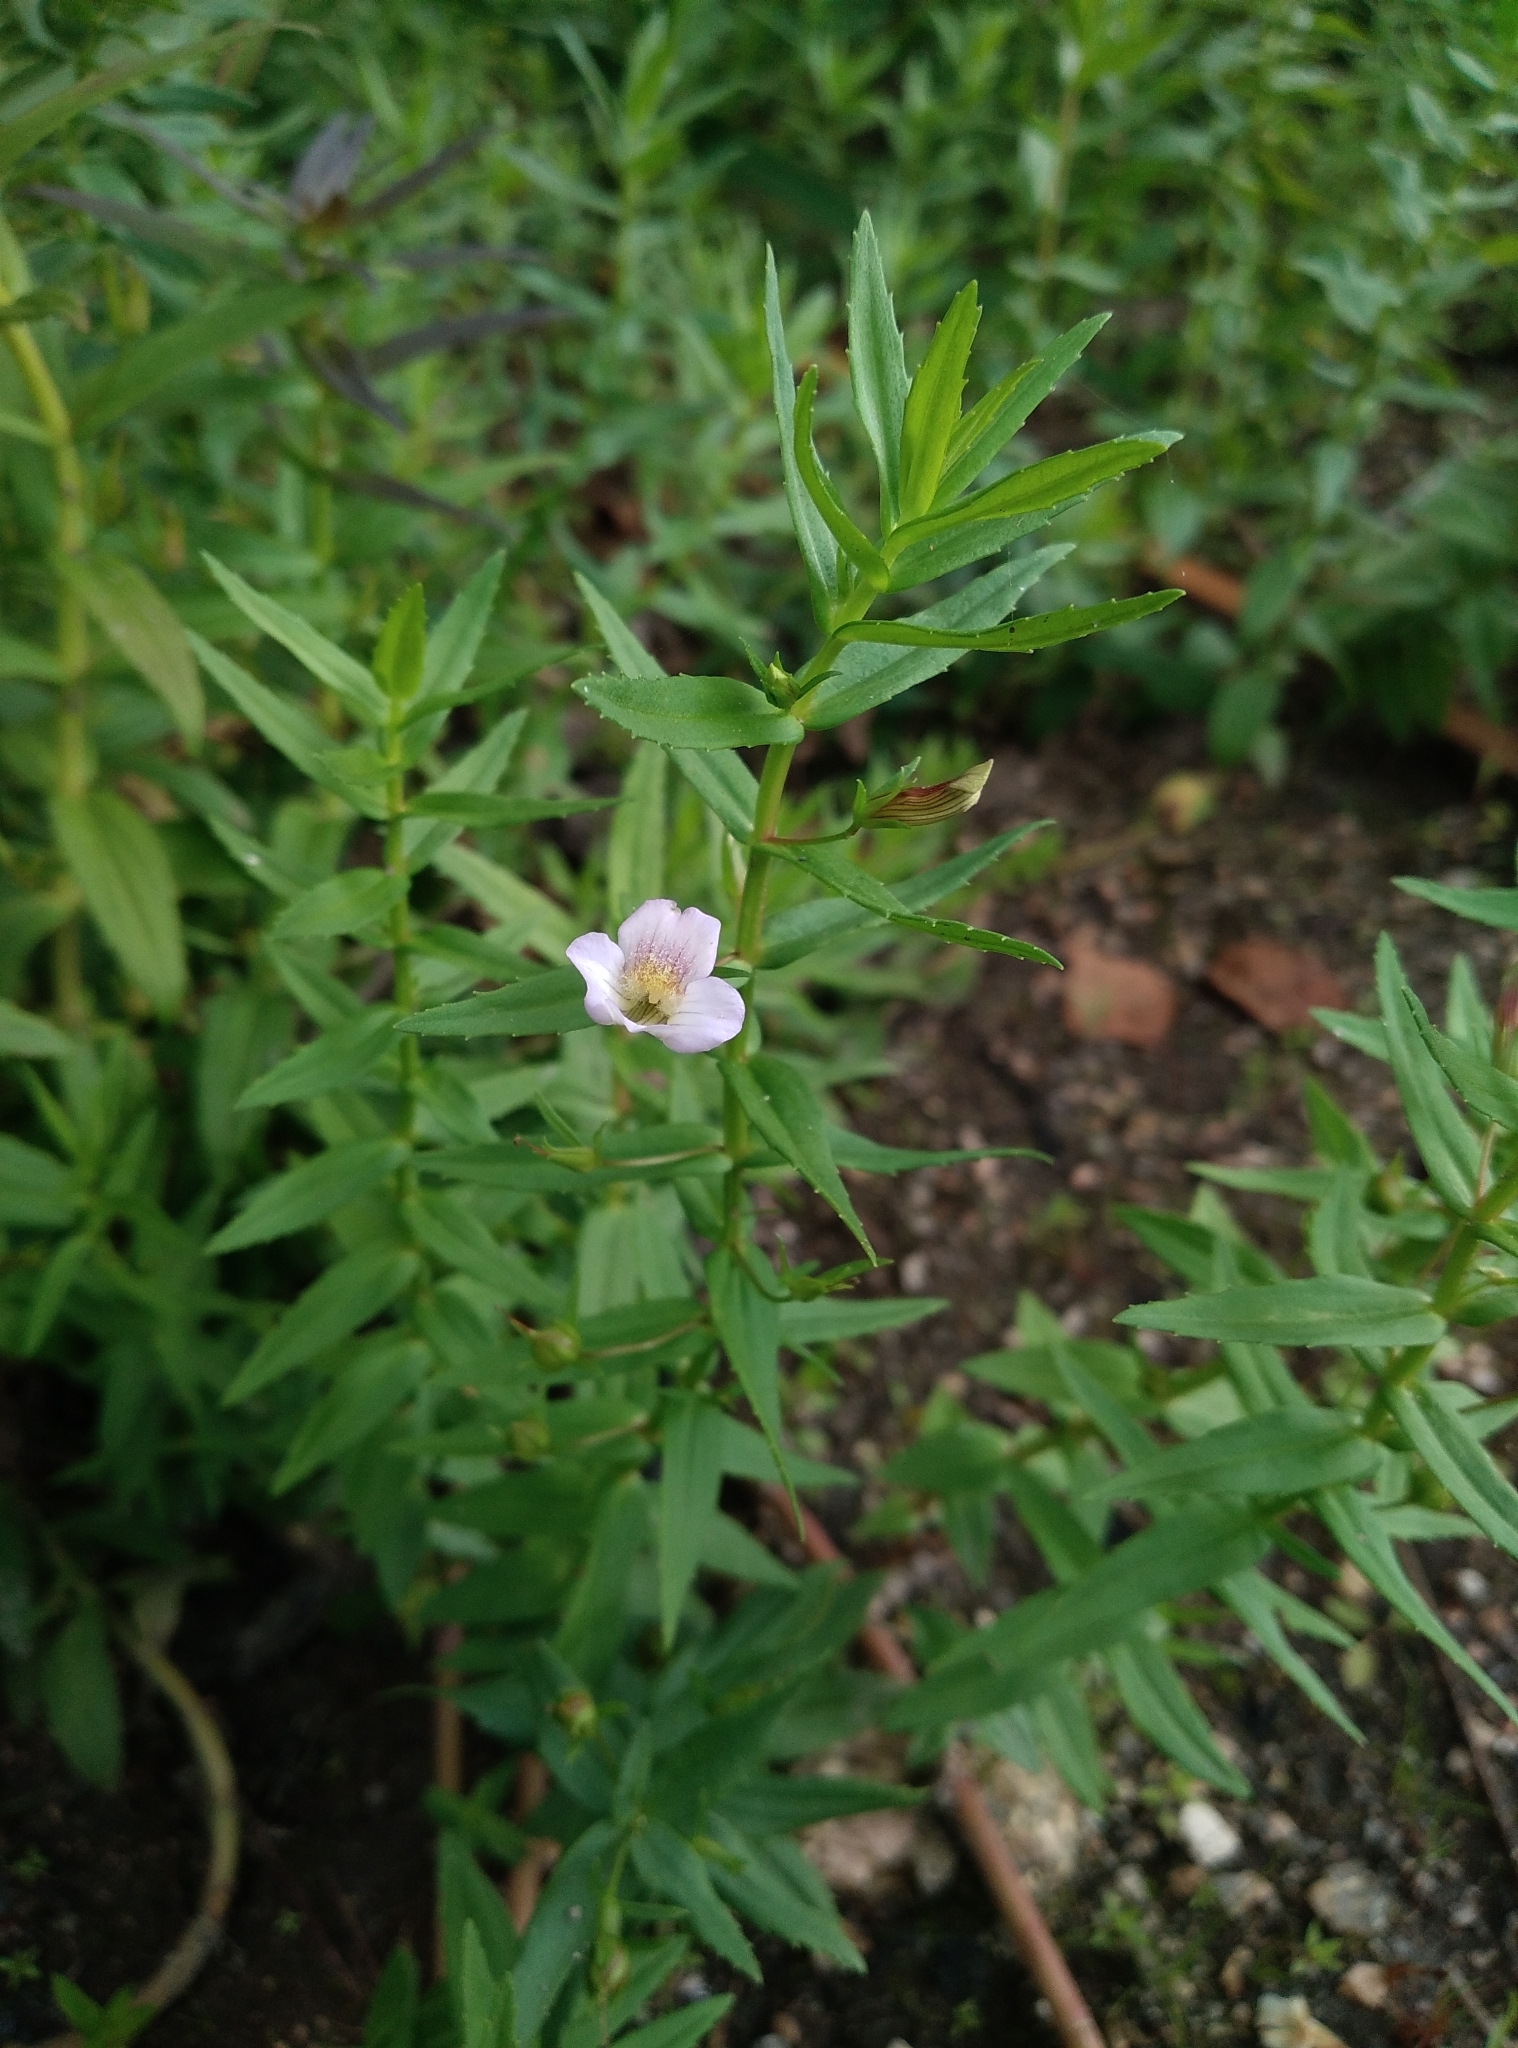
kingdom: Plantae
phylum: Tracheophyta
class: Magnoliopsida
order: Lamiales
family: Plantaginaceae
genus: Gratiola
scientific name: Gratiola officinalis
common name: Gratiola
